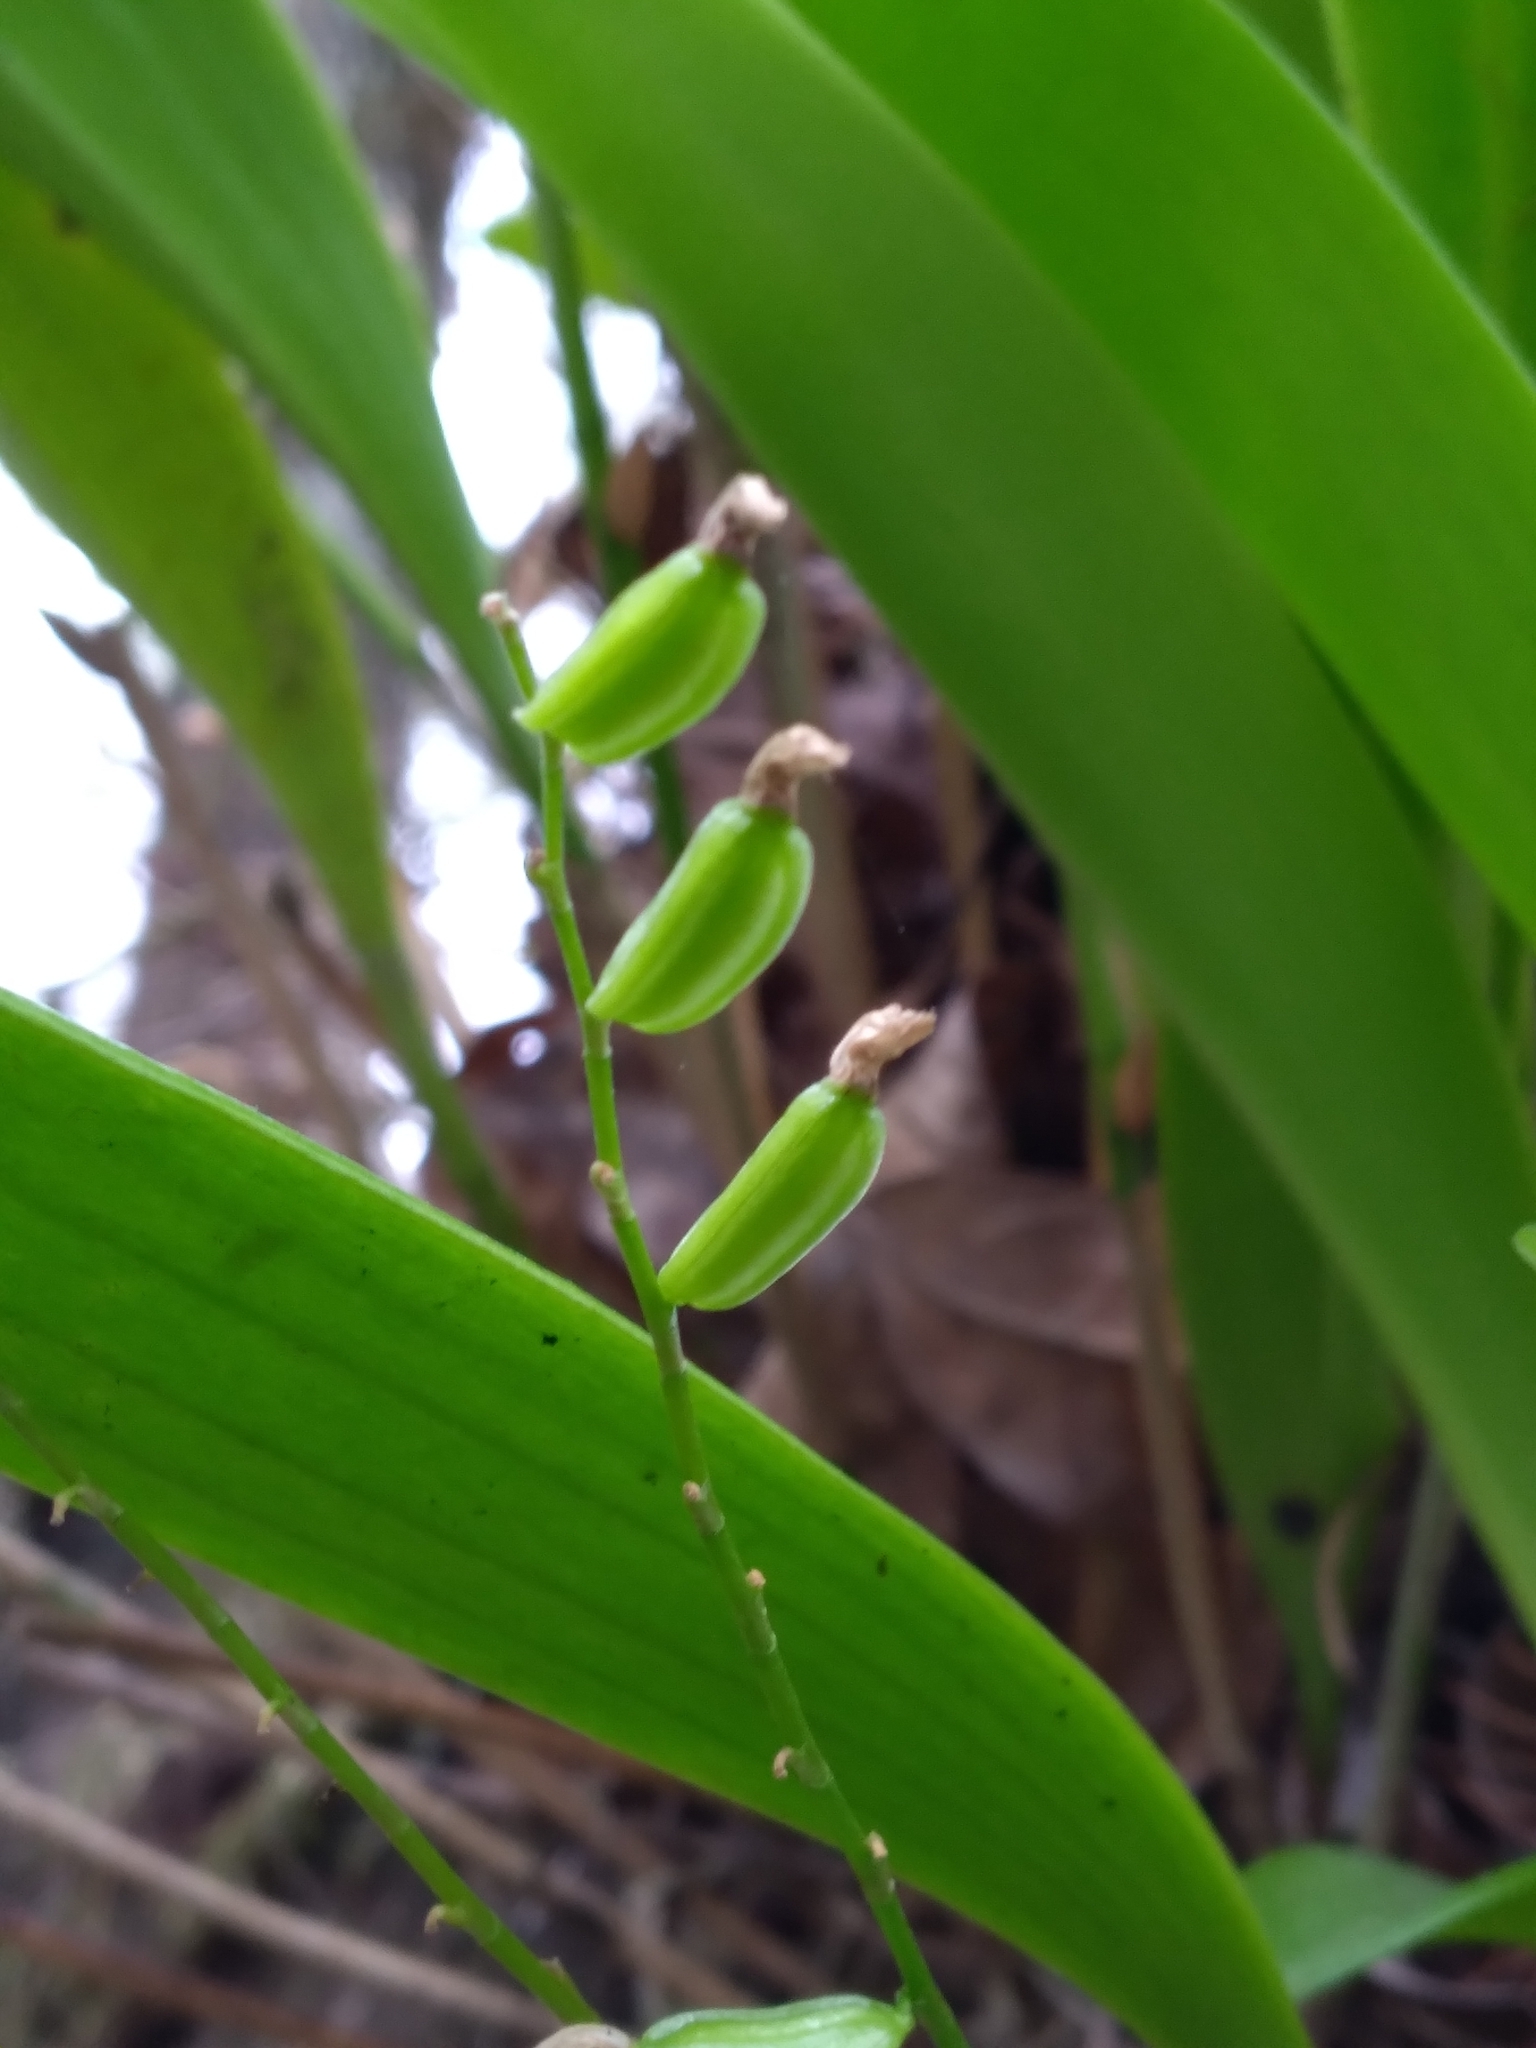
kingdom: Plantae
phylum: Tracheophyta
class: Liliopsida
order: Asparagales
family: Orchidaceae
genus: Stelis
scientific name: Stelis gelida
